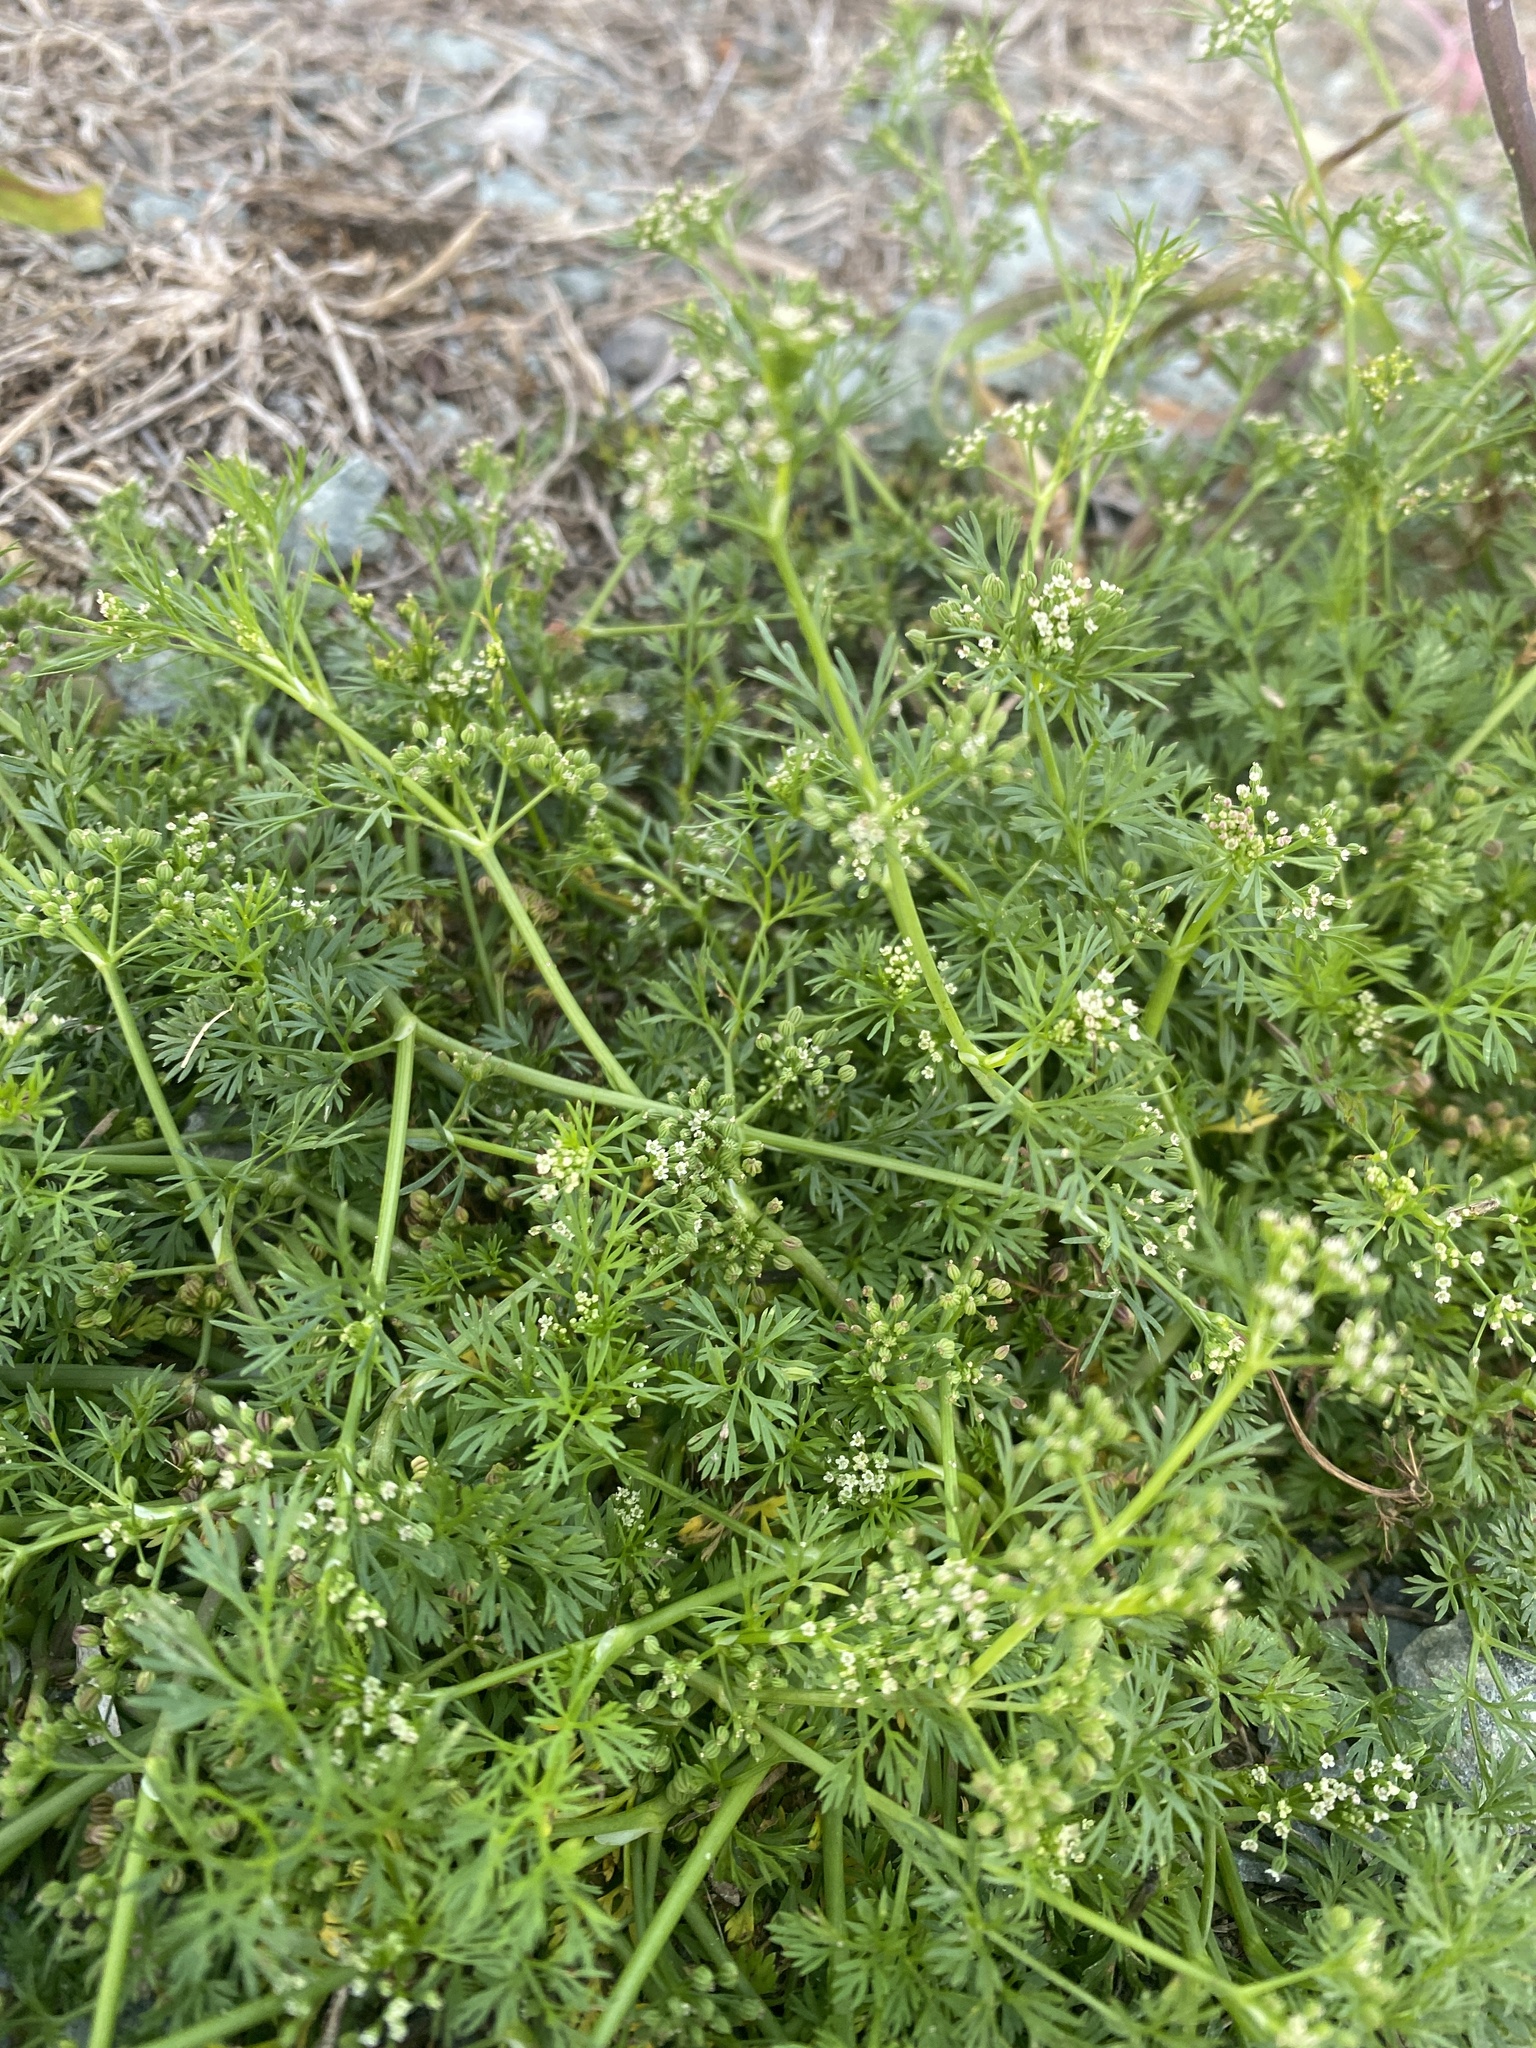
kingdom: Plantae
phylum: Tracheophyta
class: Magnoliopsida
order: Apiales
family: Apiaceae
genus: Cyclospermum
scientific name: Cyclospermum leptophyllum
